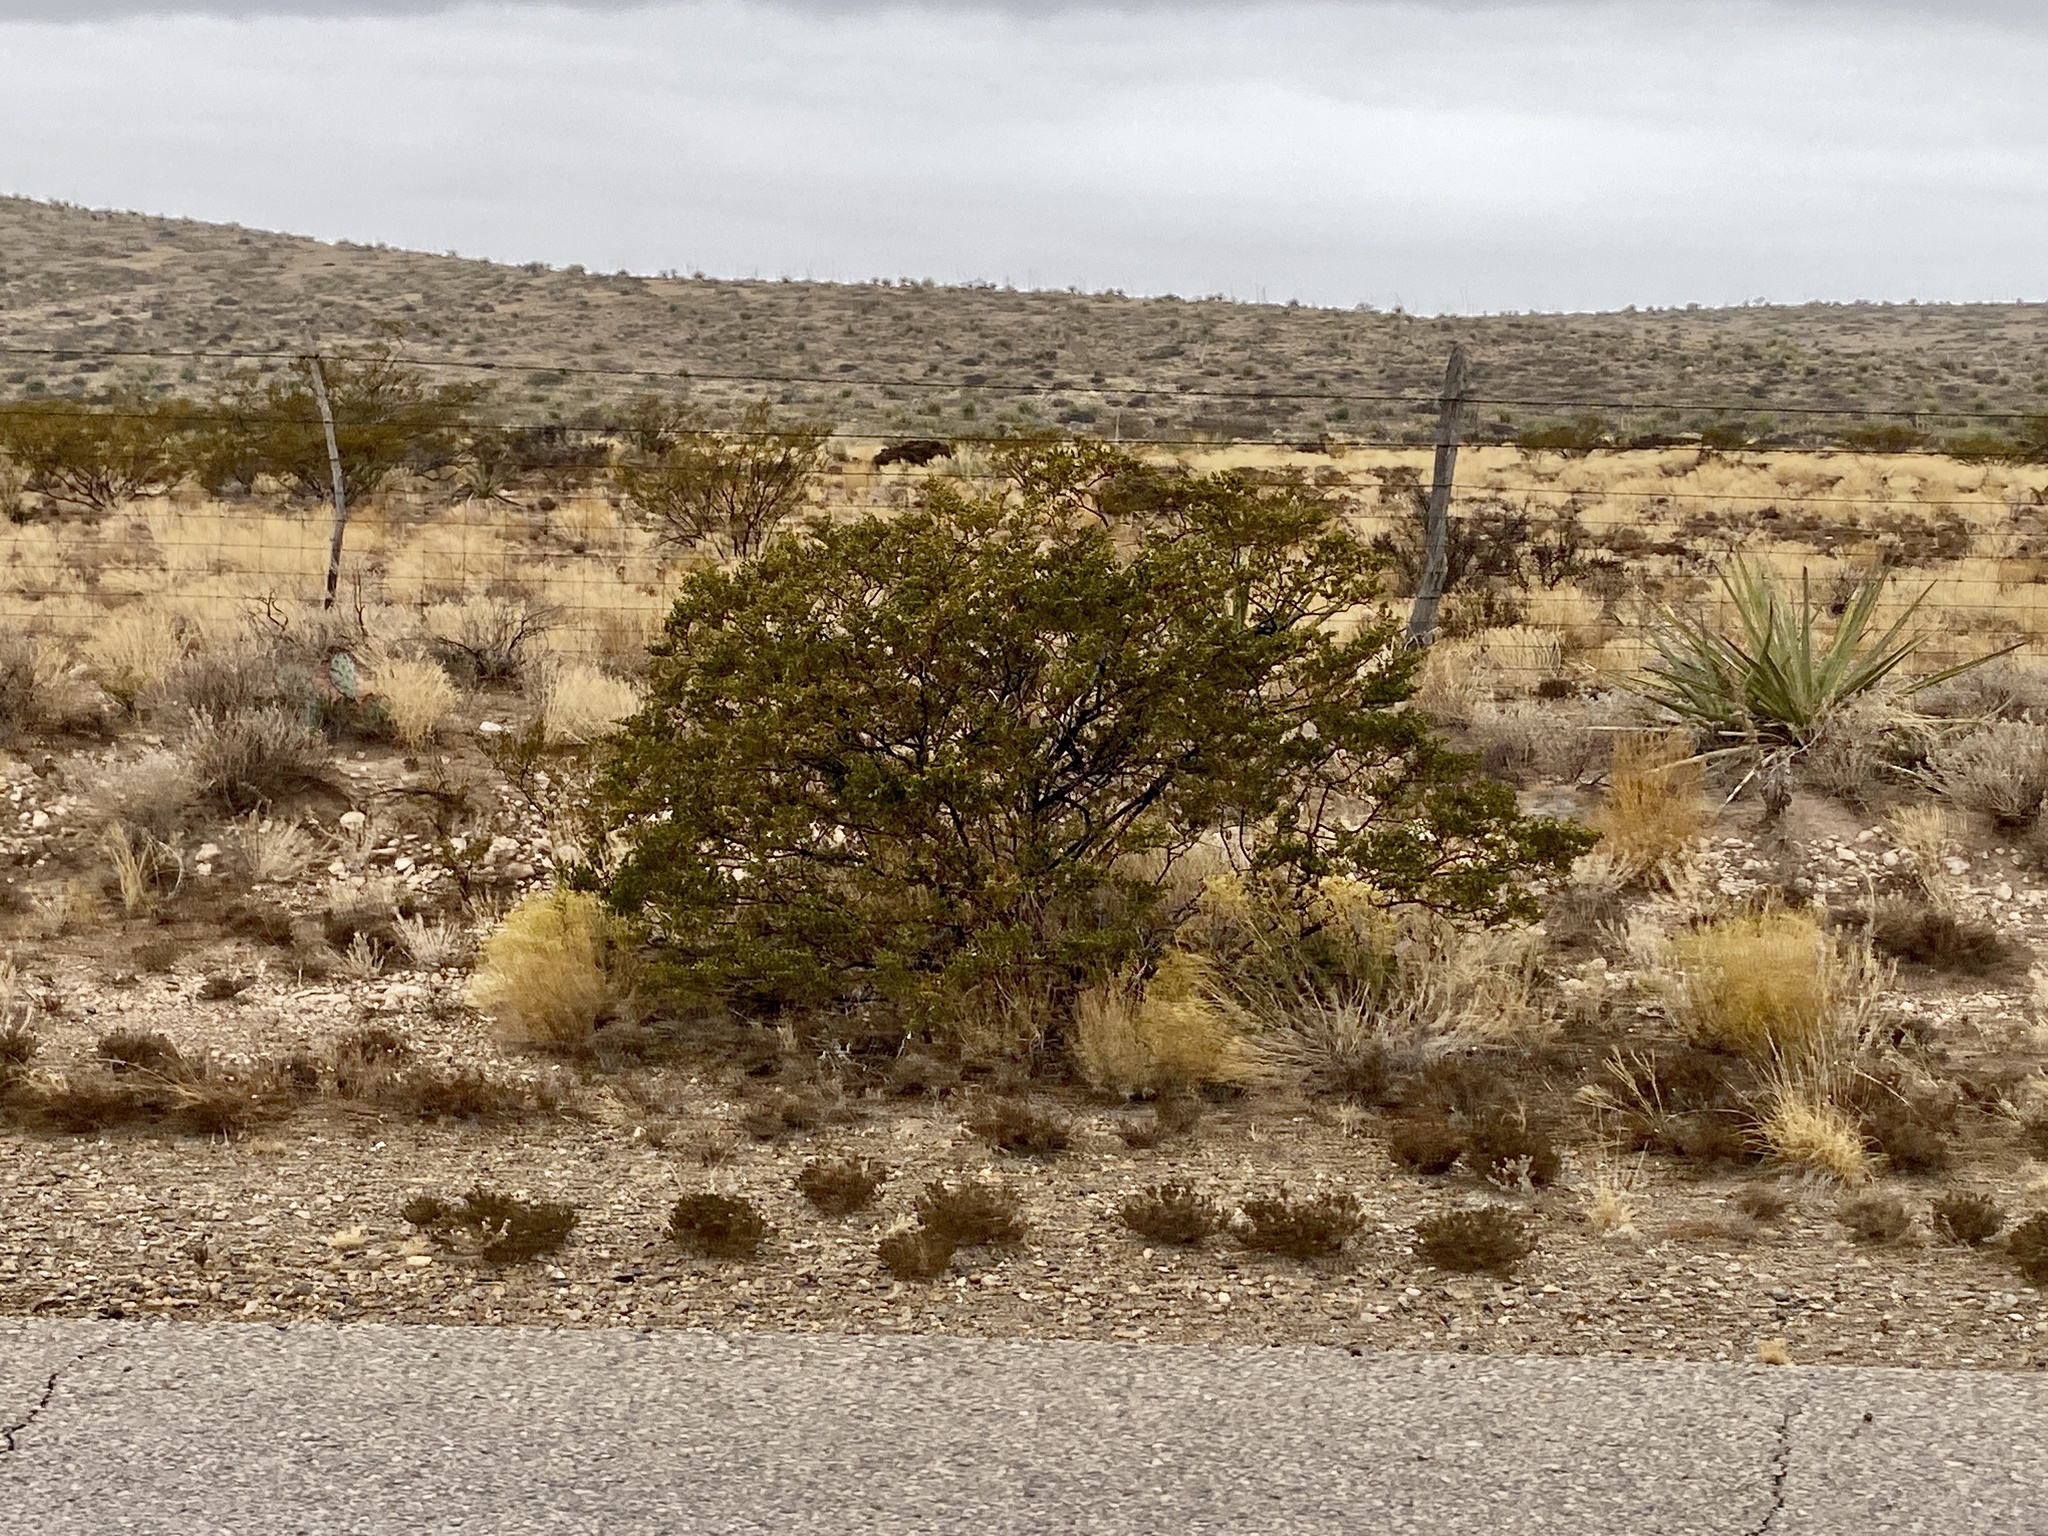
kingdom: Plantae
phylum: Tracheophyta
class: Magnoliopsida
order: Zygophyllales
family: Zygophyllaceae
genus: Larrea
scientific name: Larrea tridentata
